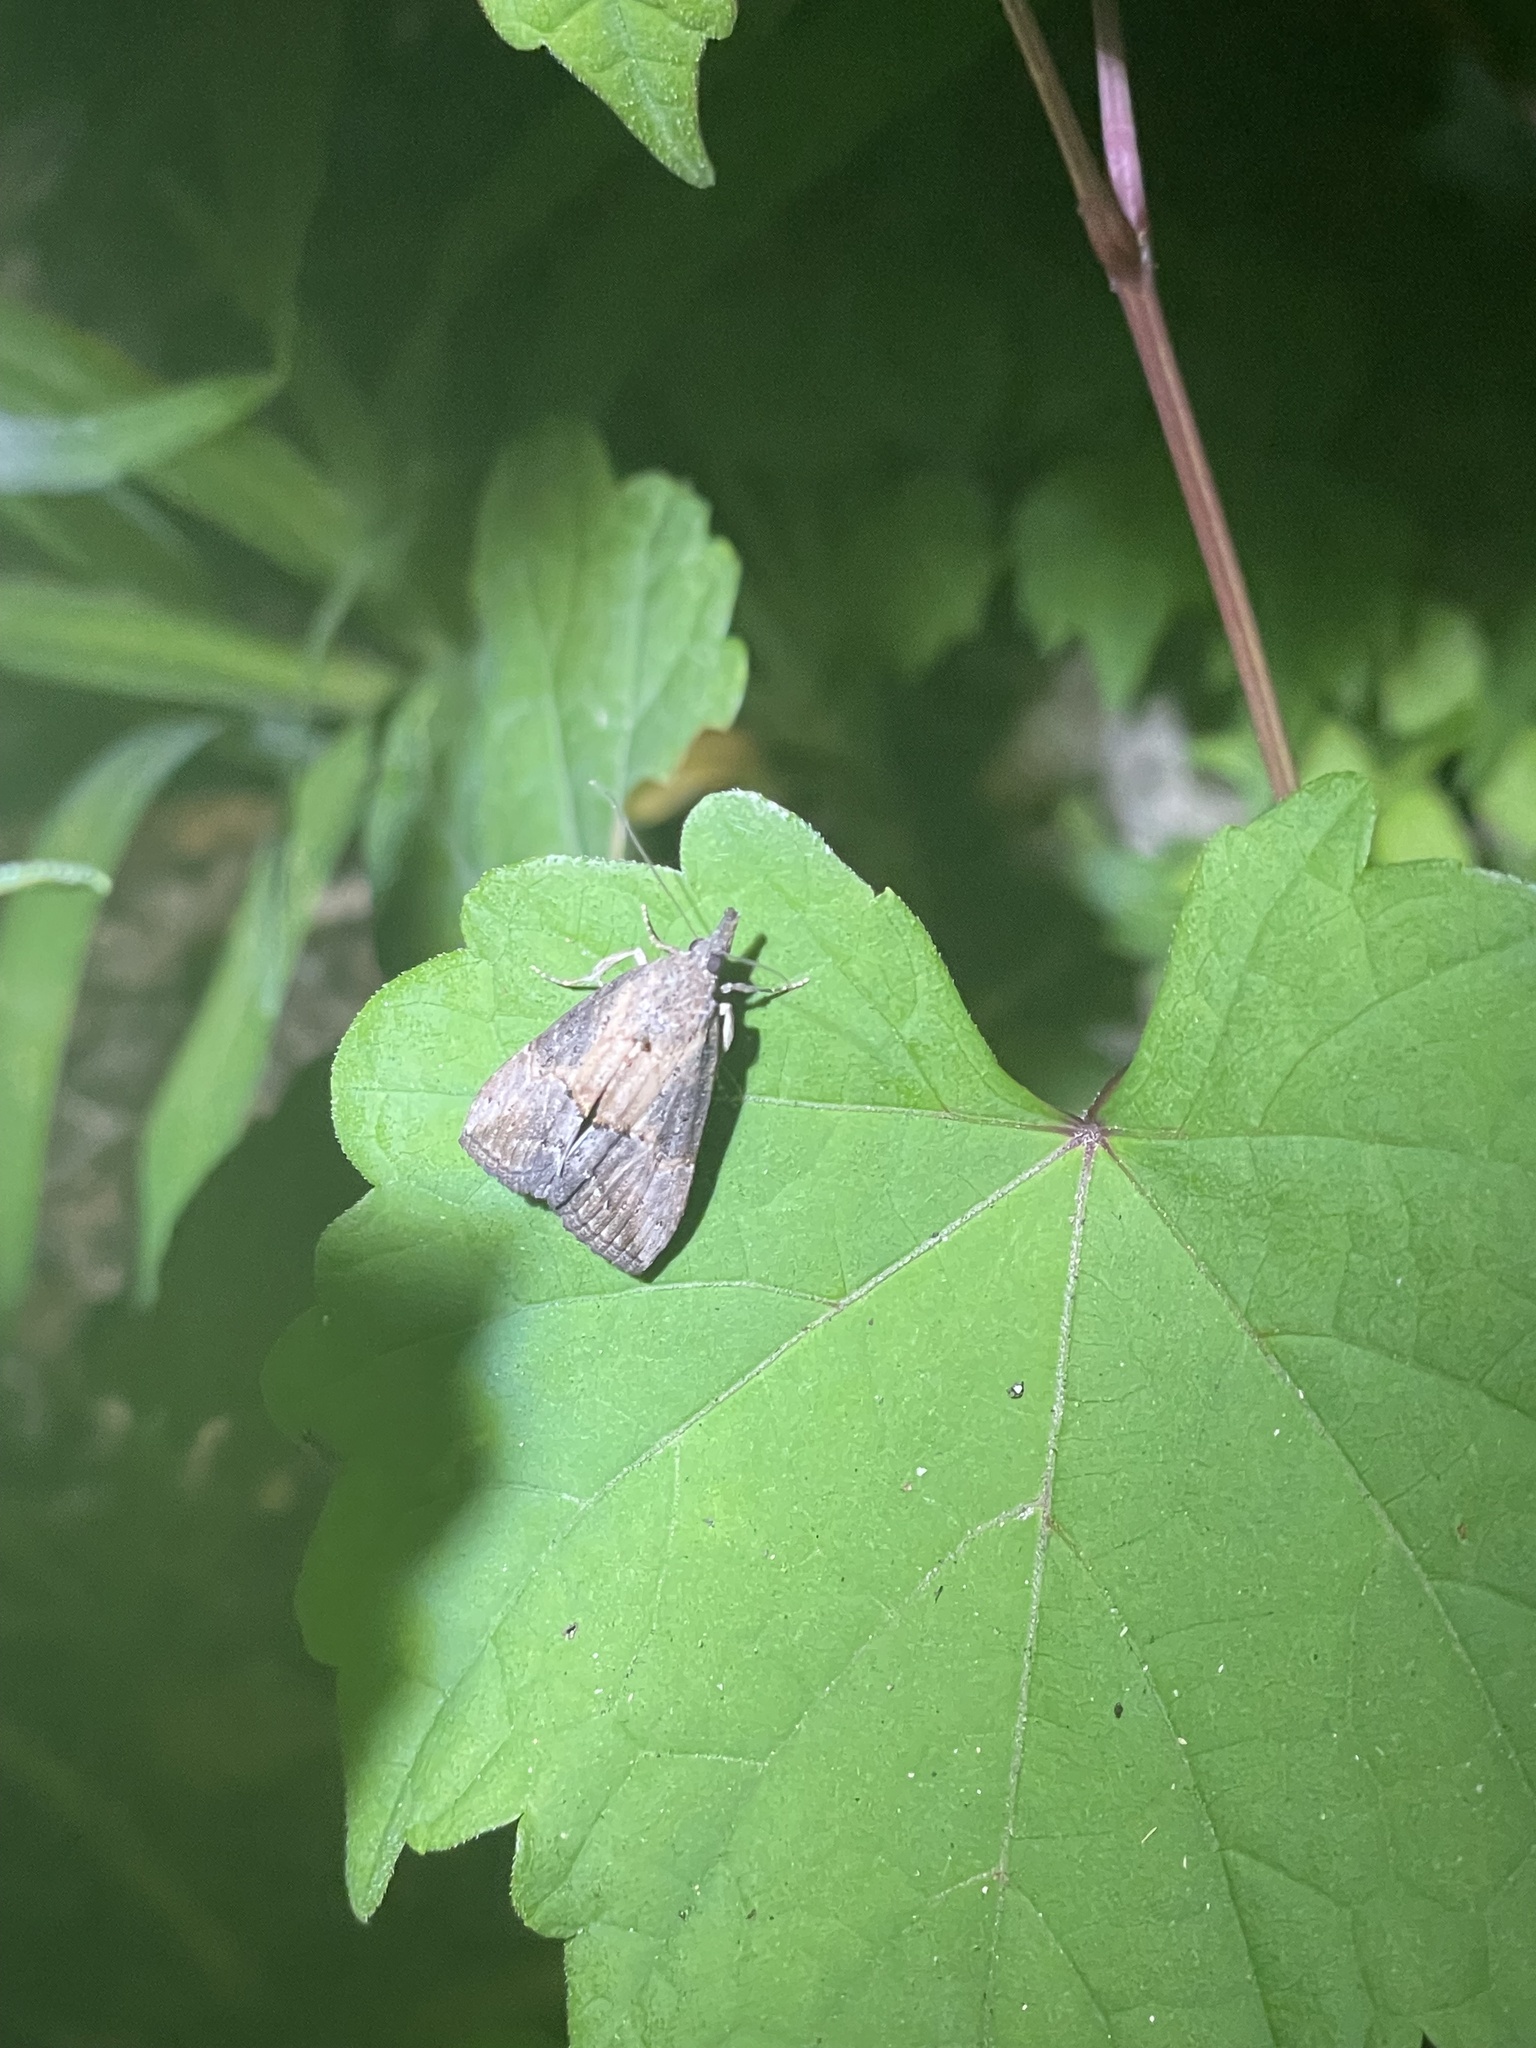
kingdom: Animalia
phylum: Arthropoda
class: Insecta
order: Lepidoptera
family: Erebidae
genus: Hypena
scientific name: Hypena scabra
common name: Green cloverworm
